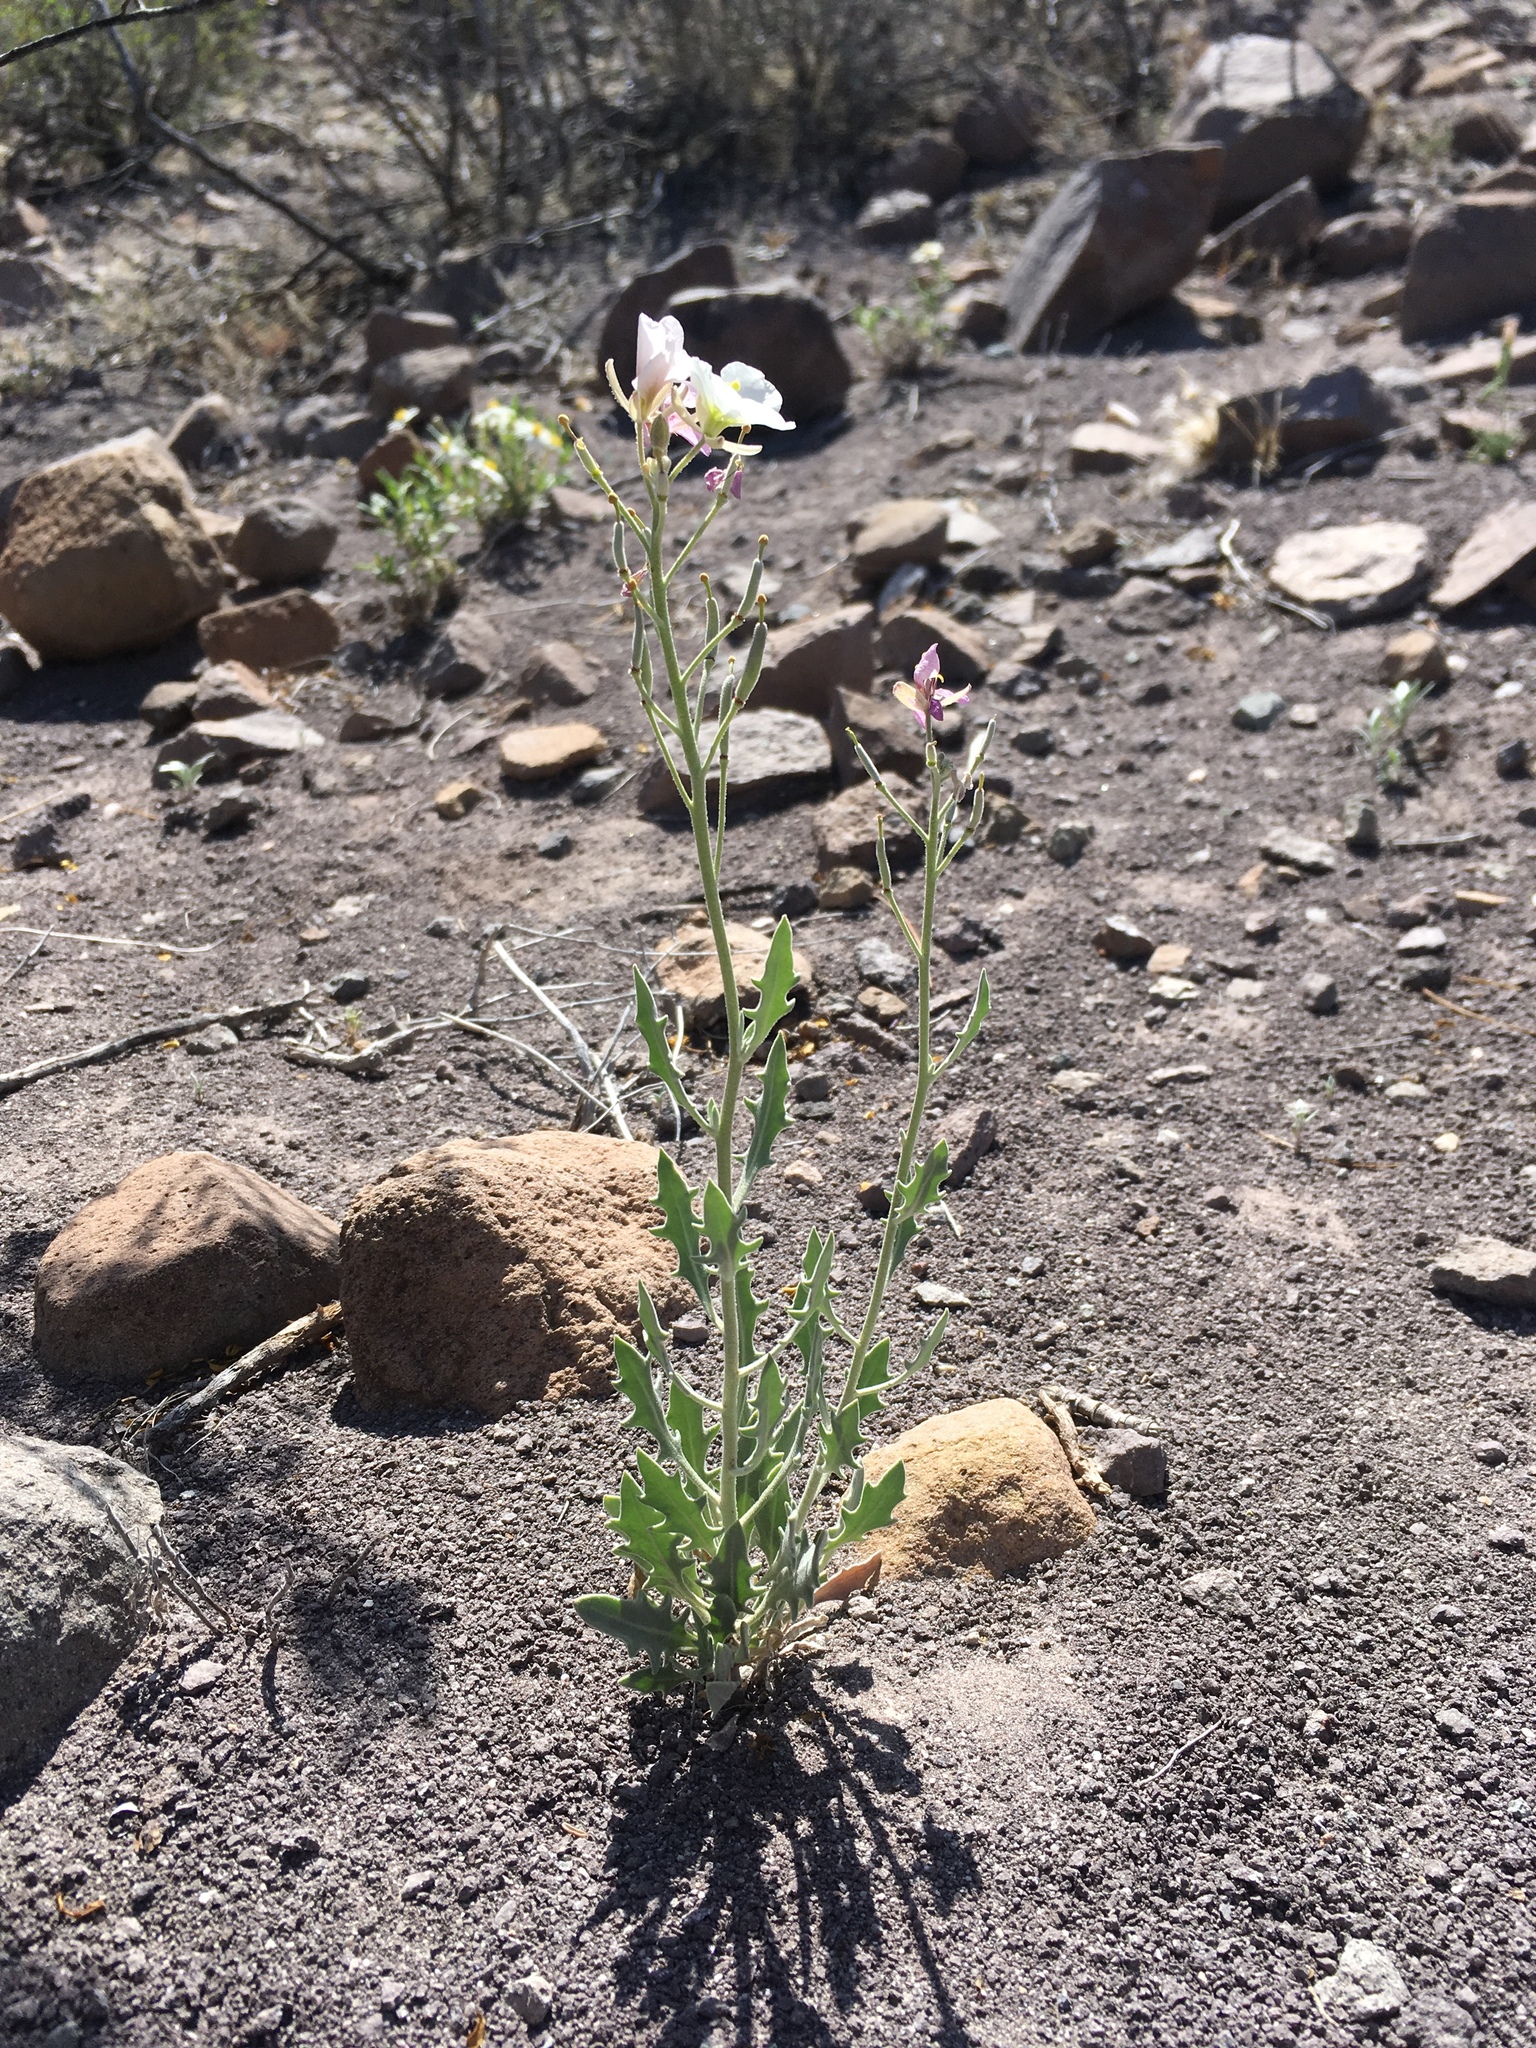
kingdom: Plantae
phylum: Tracheophyta
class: Magnoliopsida
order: Brassicales
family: Brassicaceae
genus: Nerisyrenia
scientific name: Nerisyrenia camporum
